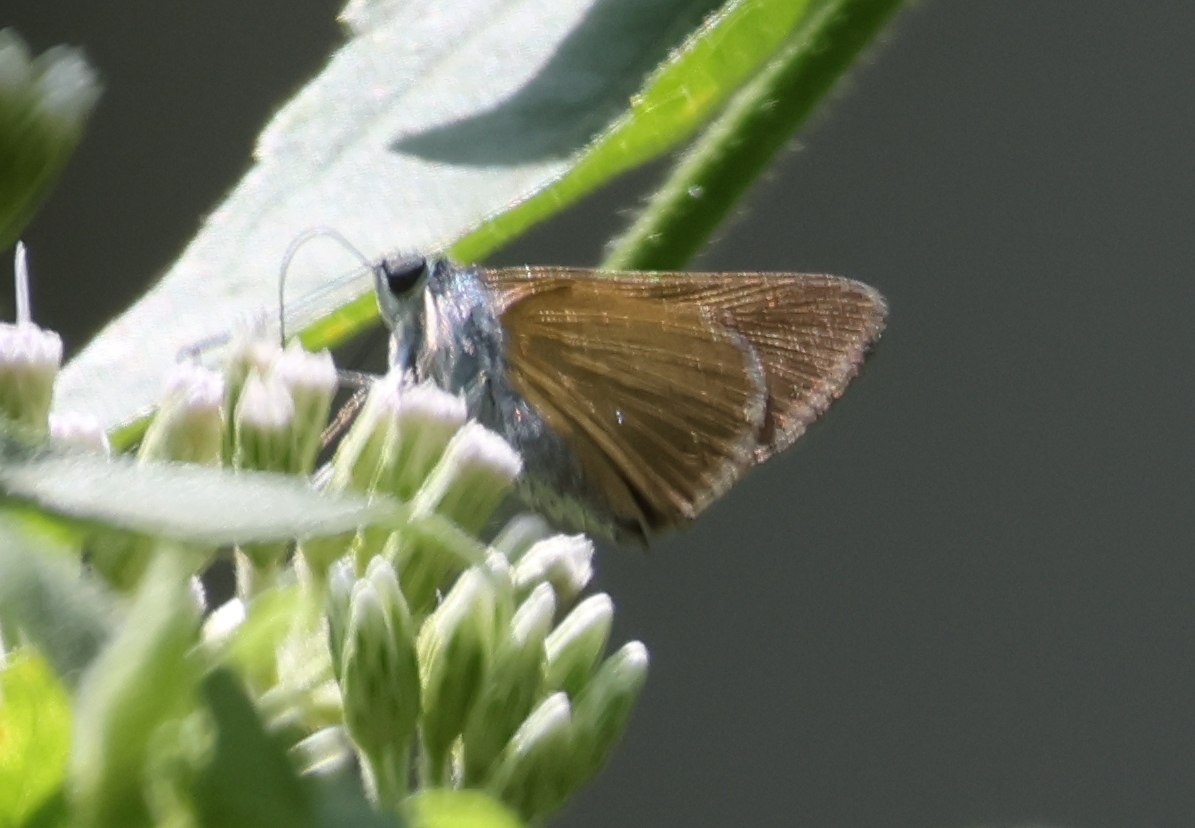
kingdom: Animalia
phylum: Arthropoda
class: Insecta
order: Lepidoptera
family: Hesperiidae
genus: Onophas
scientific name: Onophas columbaria
